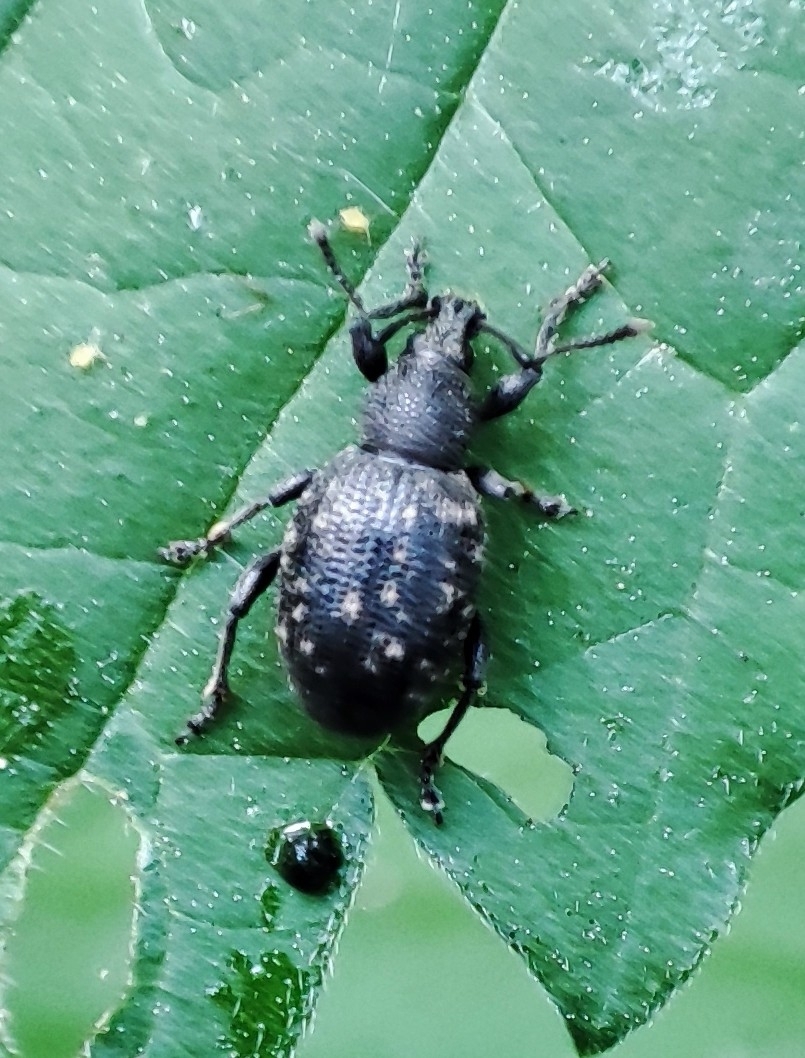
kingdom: Animalia
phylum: Arthropoda
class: Insecta
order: Coleoptera
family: Curculionidae
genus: Otiorhynchus
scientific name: Otiorhynchus tristis
